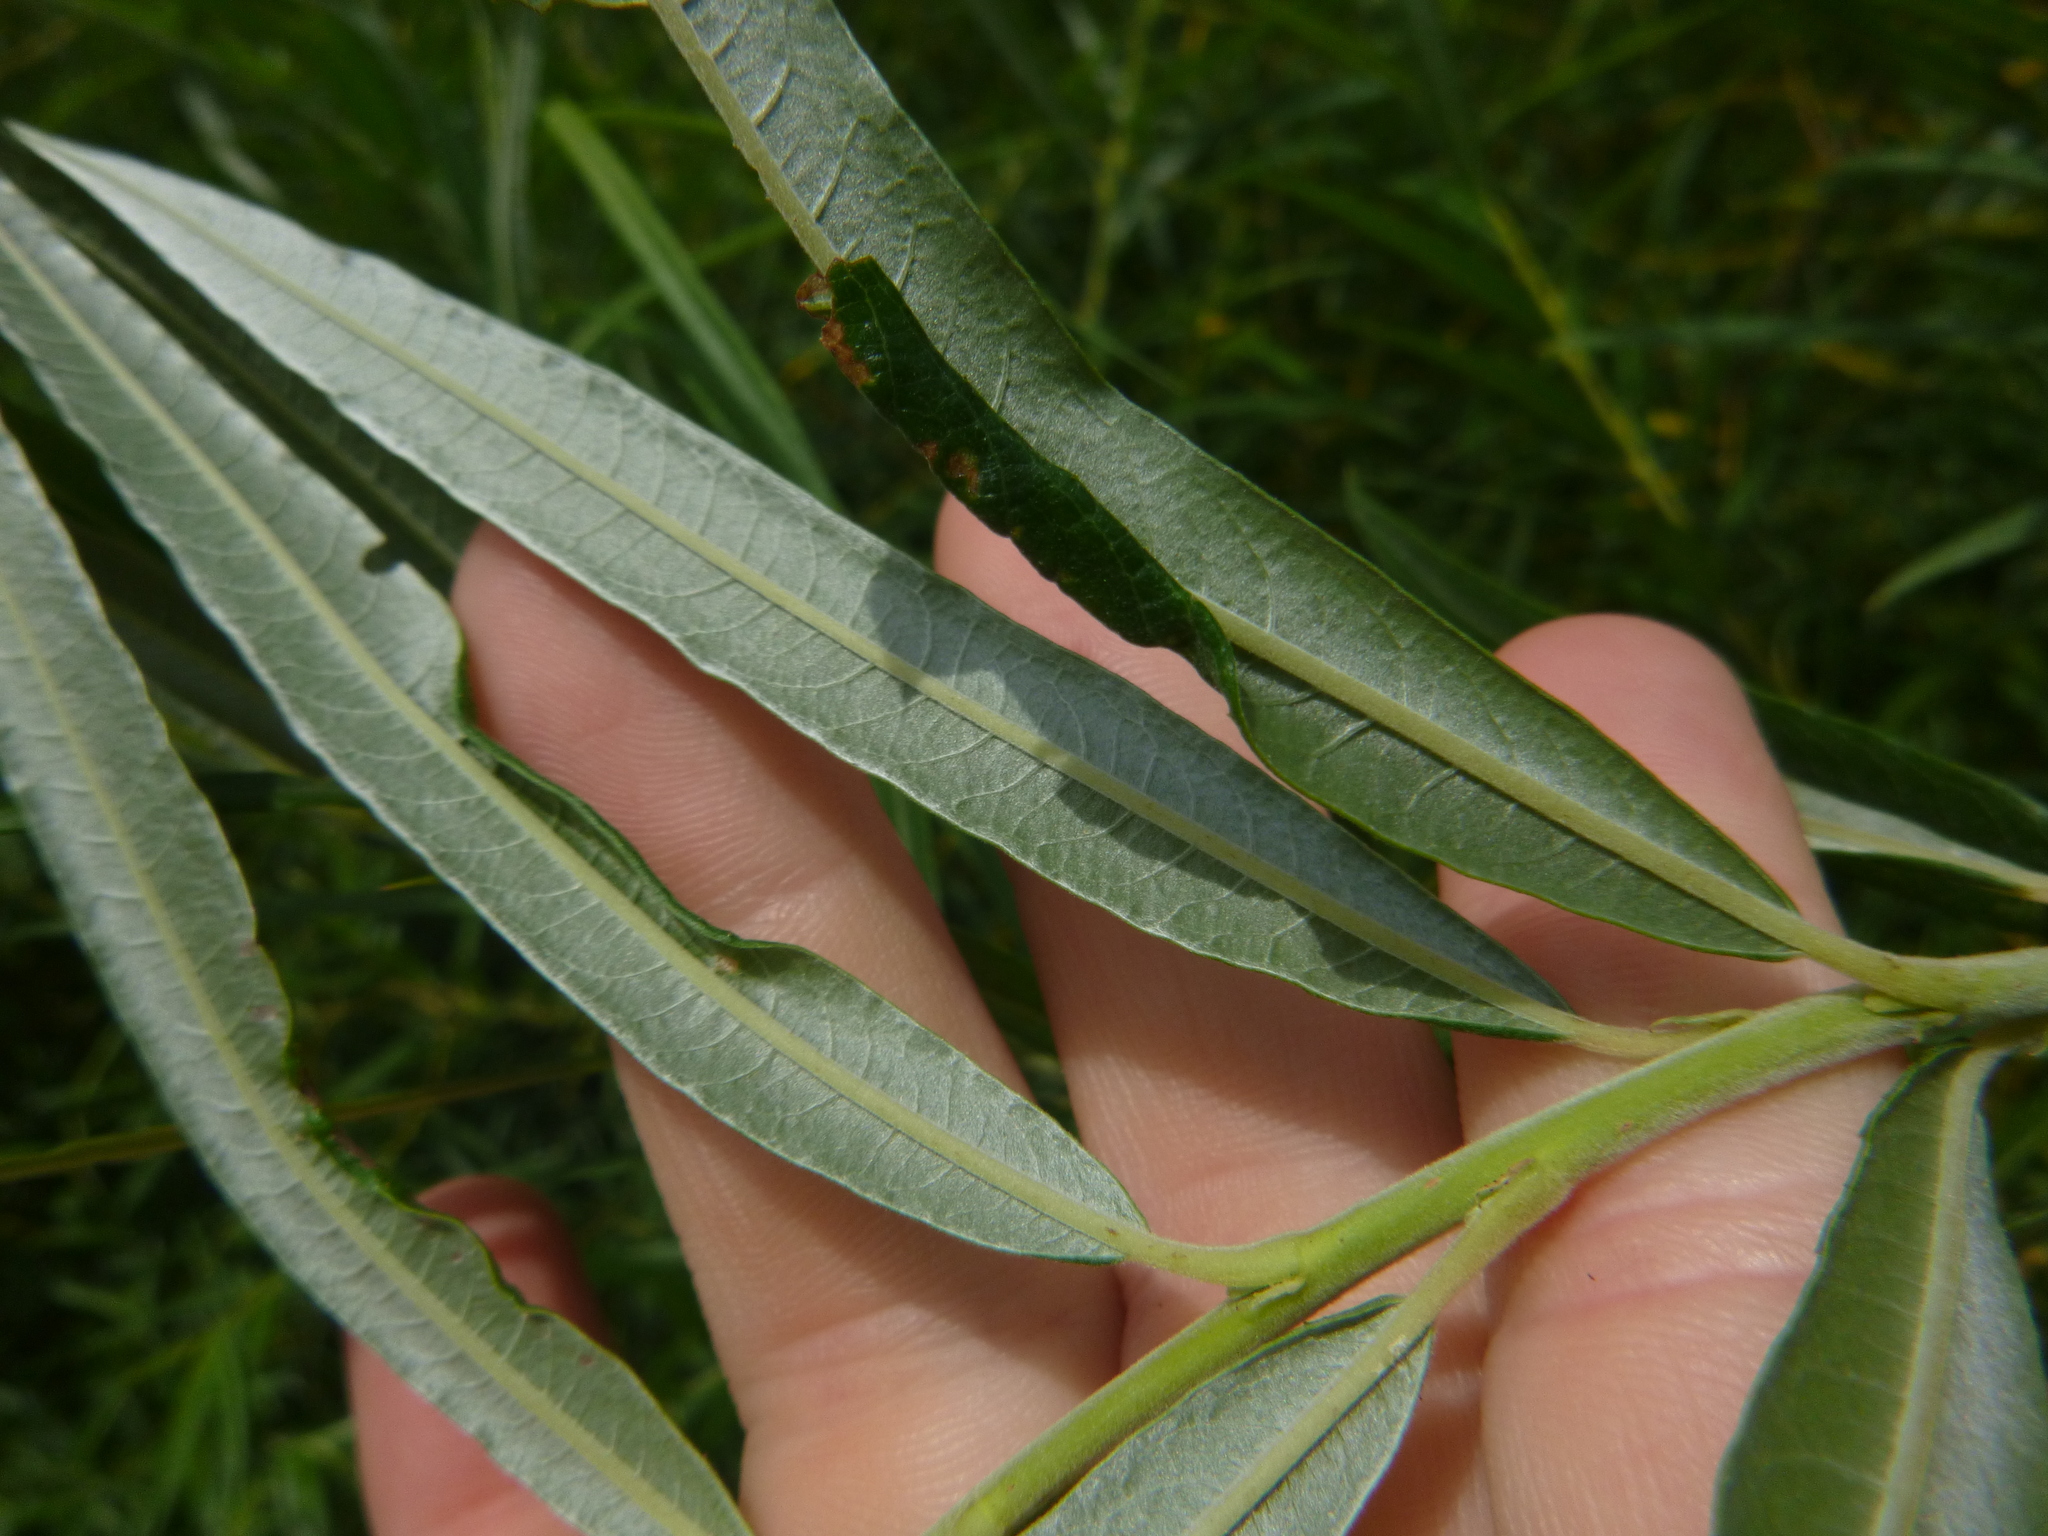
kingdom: Plantae
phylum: Tracheophyta
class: Magnoliopsida
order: Malpighiales
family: Salicaceae
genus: Salix
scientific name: Salix viminalis
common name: Osier
